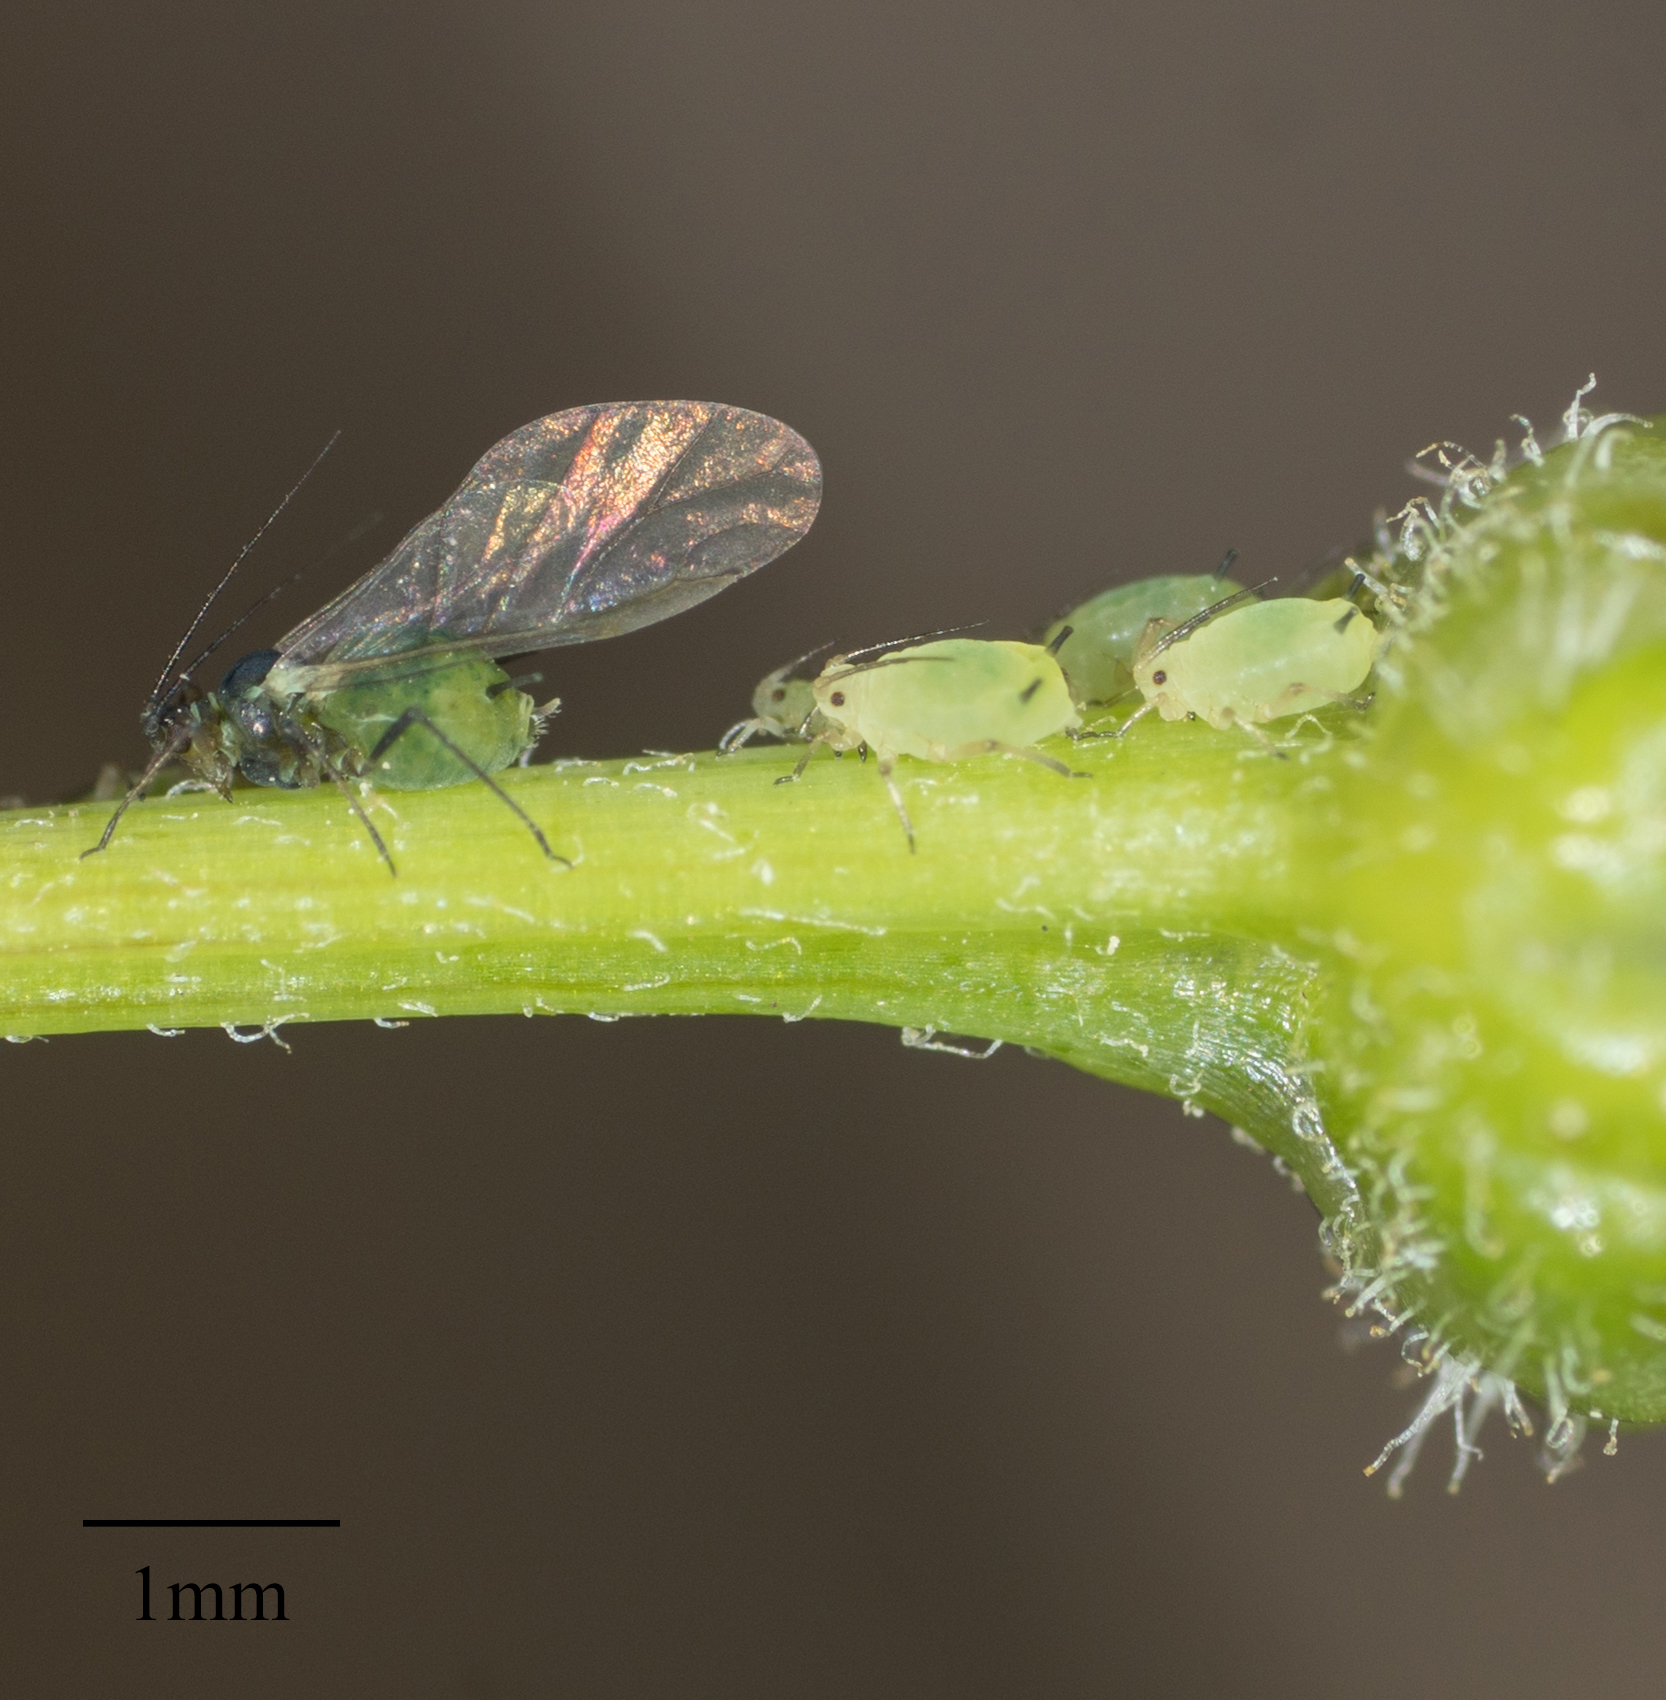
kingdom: Animalia
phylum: Arthropoda
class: Insecta
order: Hemiptera
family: Aphididae
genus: Aphis
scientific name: Aphis coreopsidis
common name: Aphid
